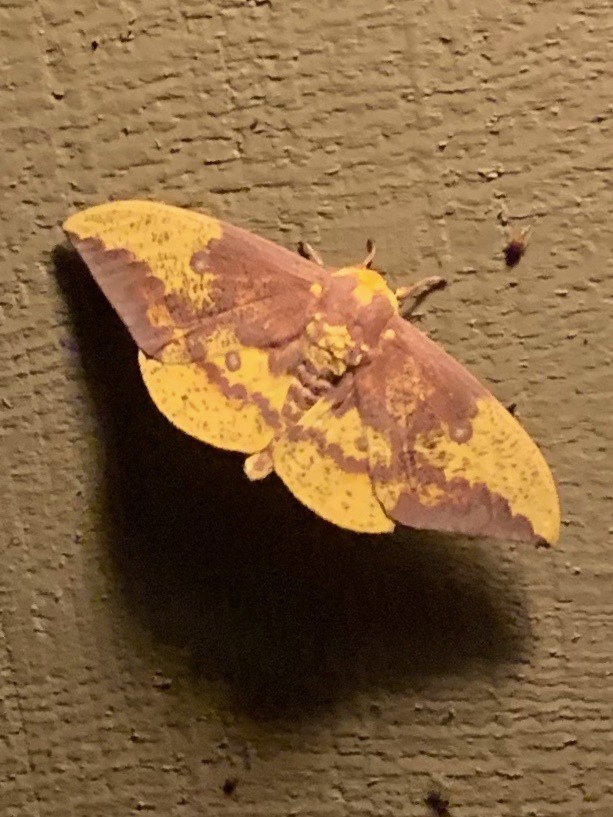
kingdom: Animalia
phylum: Arthropoda
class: Insecta
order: Lepidoptera
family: Saturniidae
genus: Eacles
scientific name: Eacles imperialis
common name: Imperial moth
